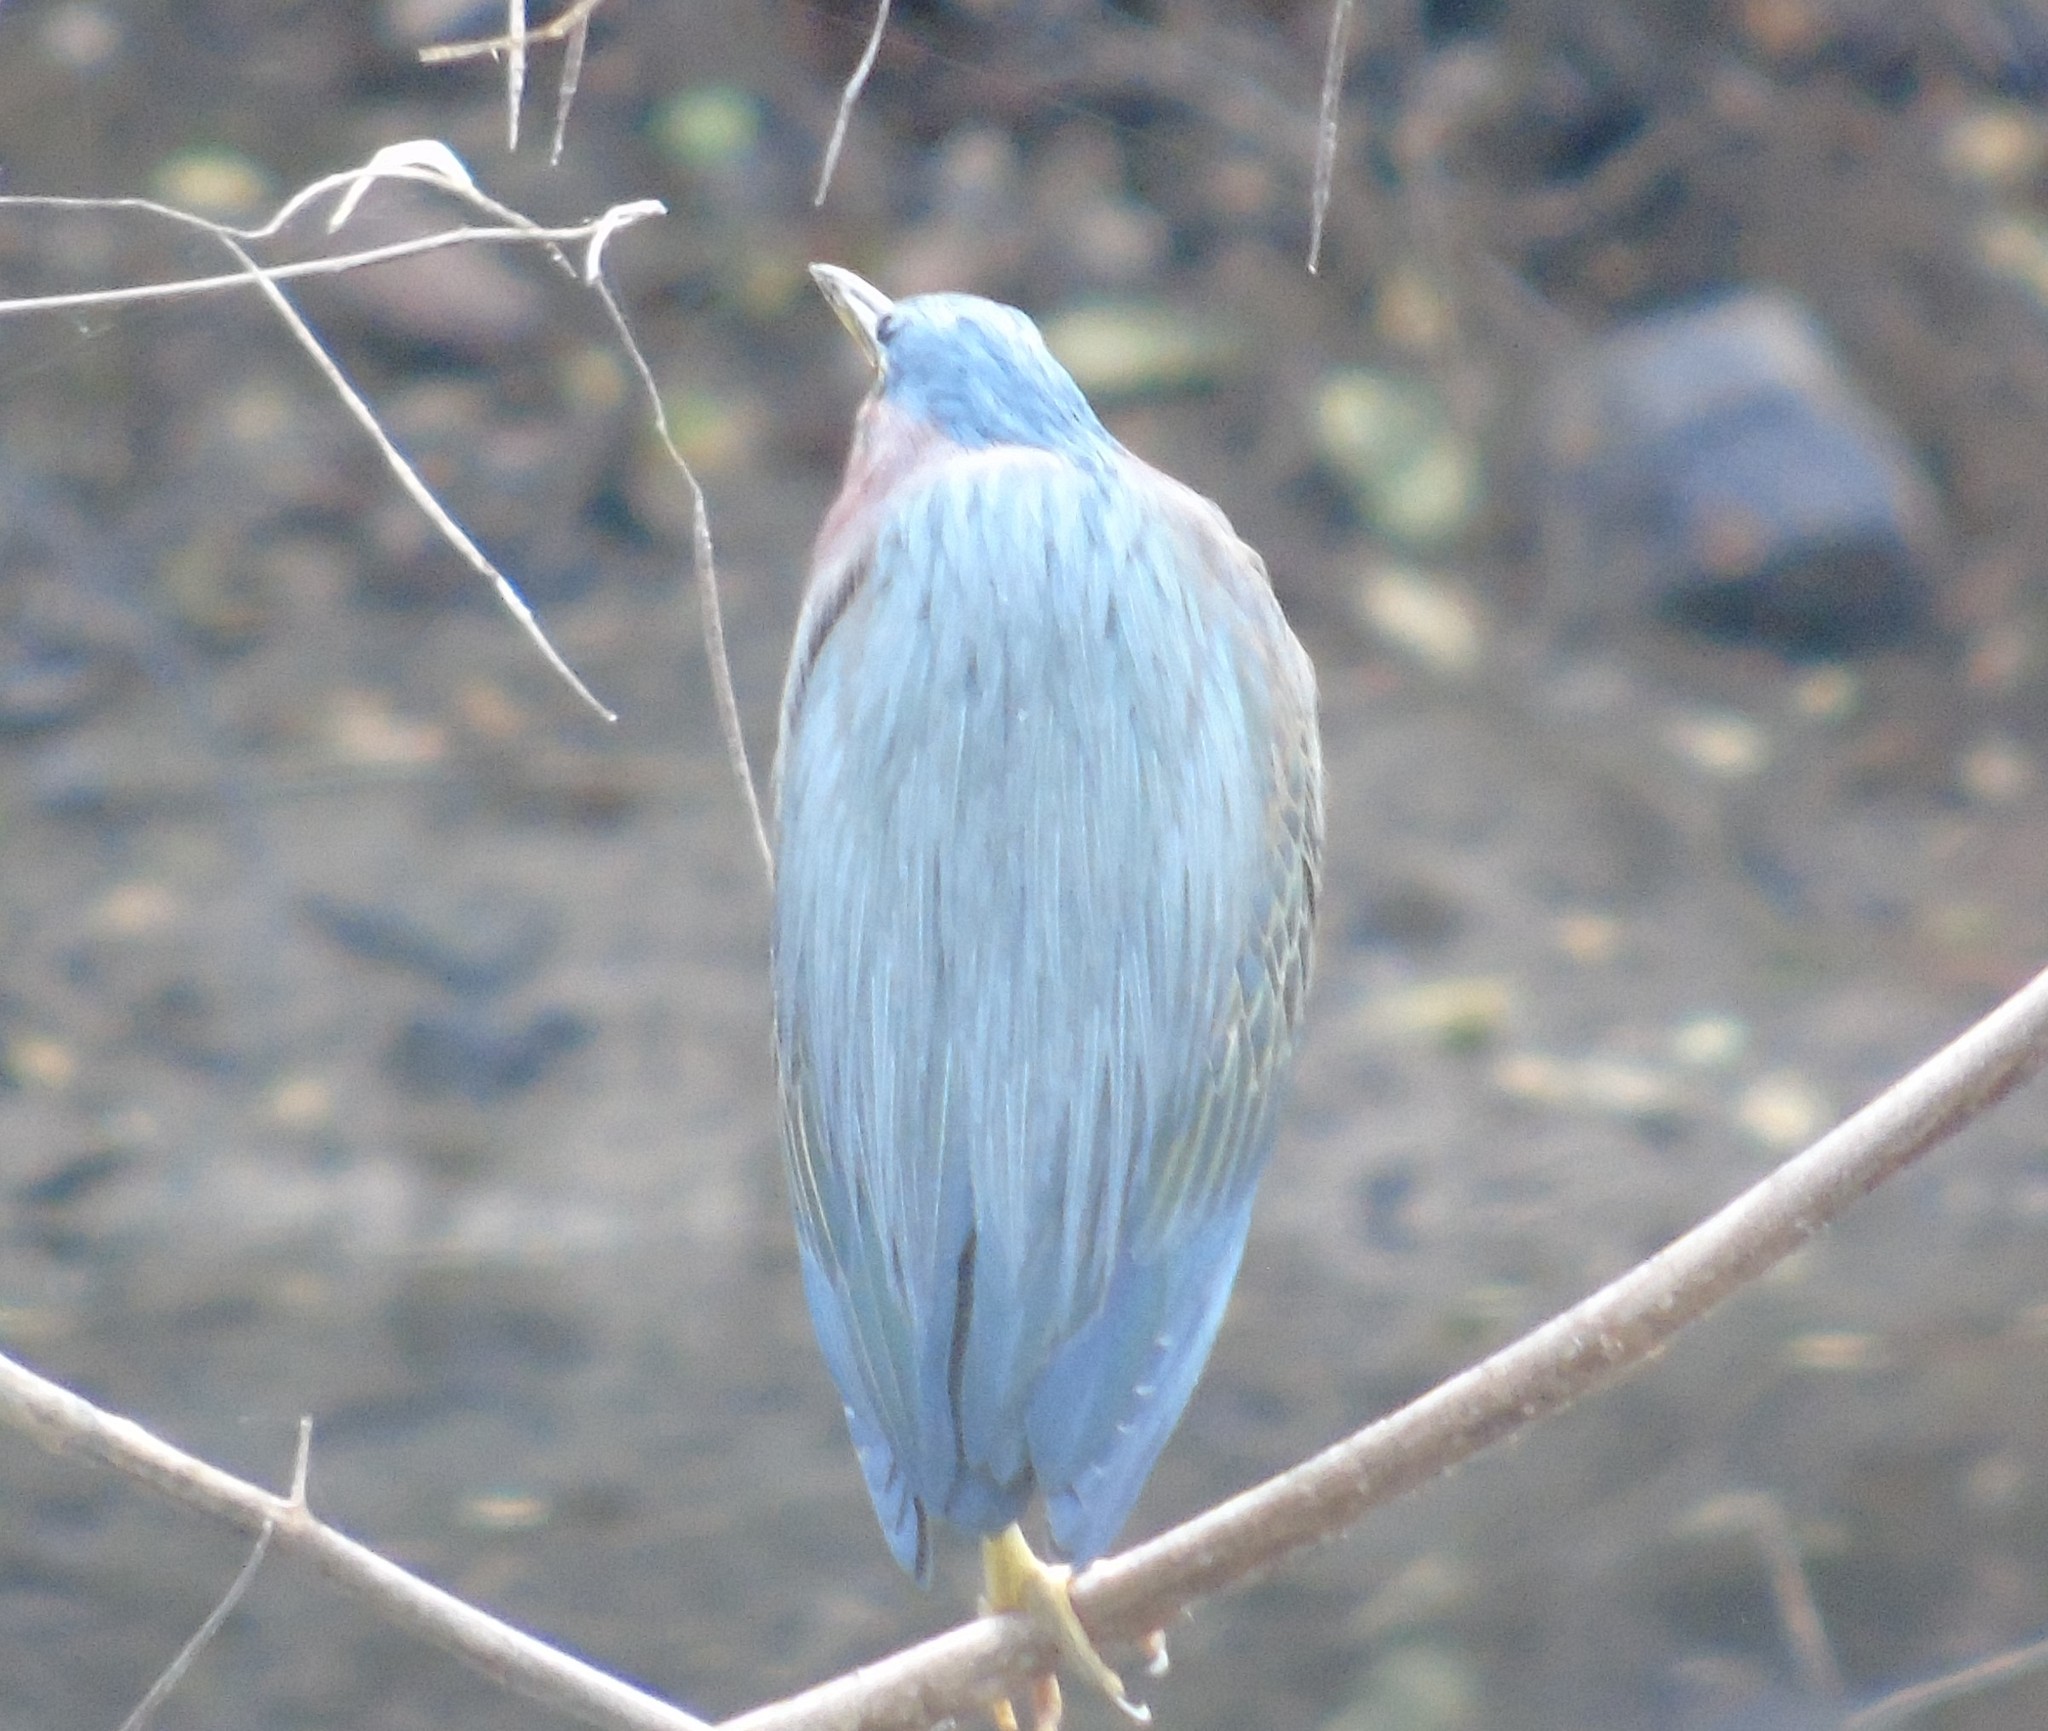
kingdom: Animalia
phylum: Chordata
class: Aves
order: Pelecaniformes
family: Ardeidae
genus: Butorides
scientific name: Butorides virescens
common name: Green heron
